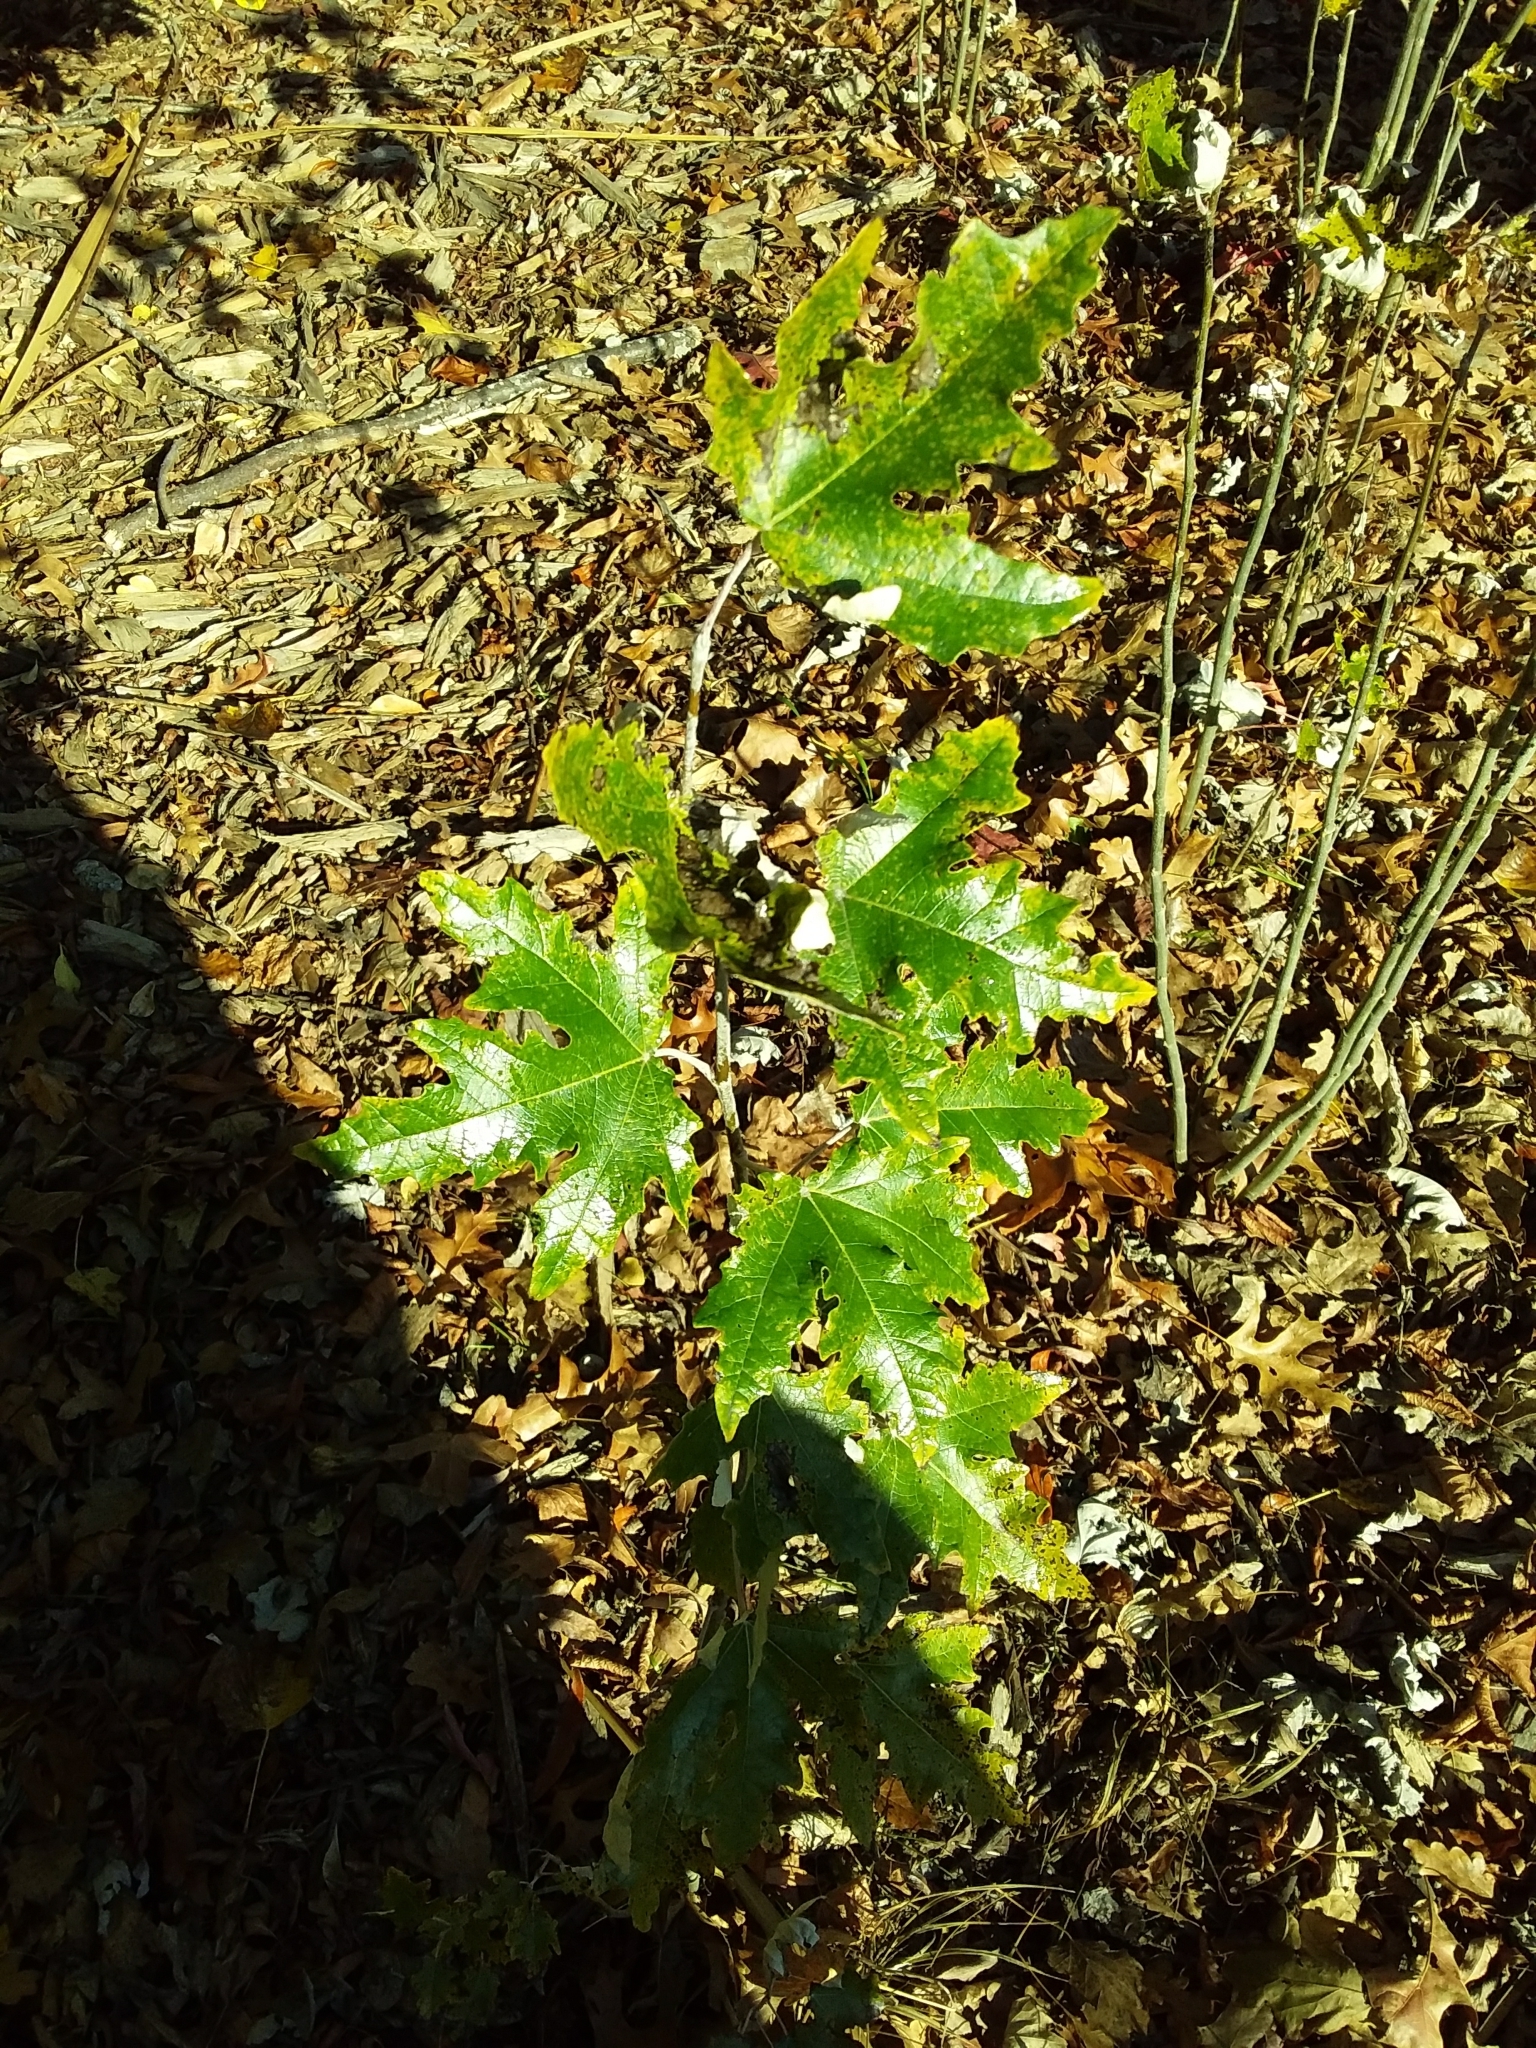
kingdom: Plantae
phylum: Tracheophyta
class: Magnoliopsida
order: Malpighiales
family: Salicaceae
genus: Populus
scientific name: Populus alba
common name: White poplar
